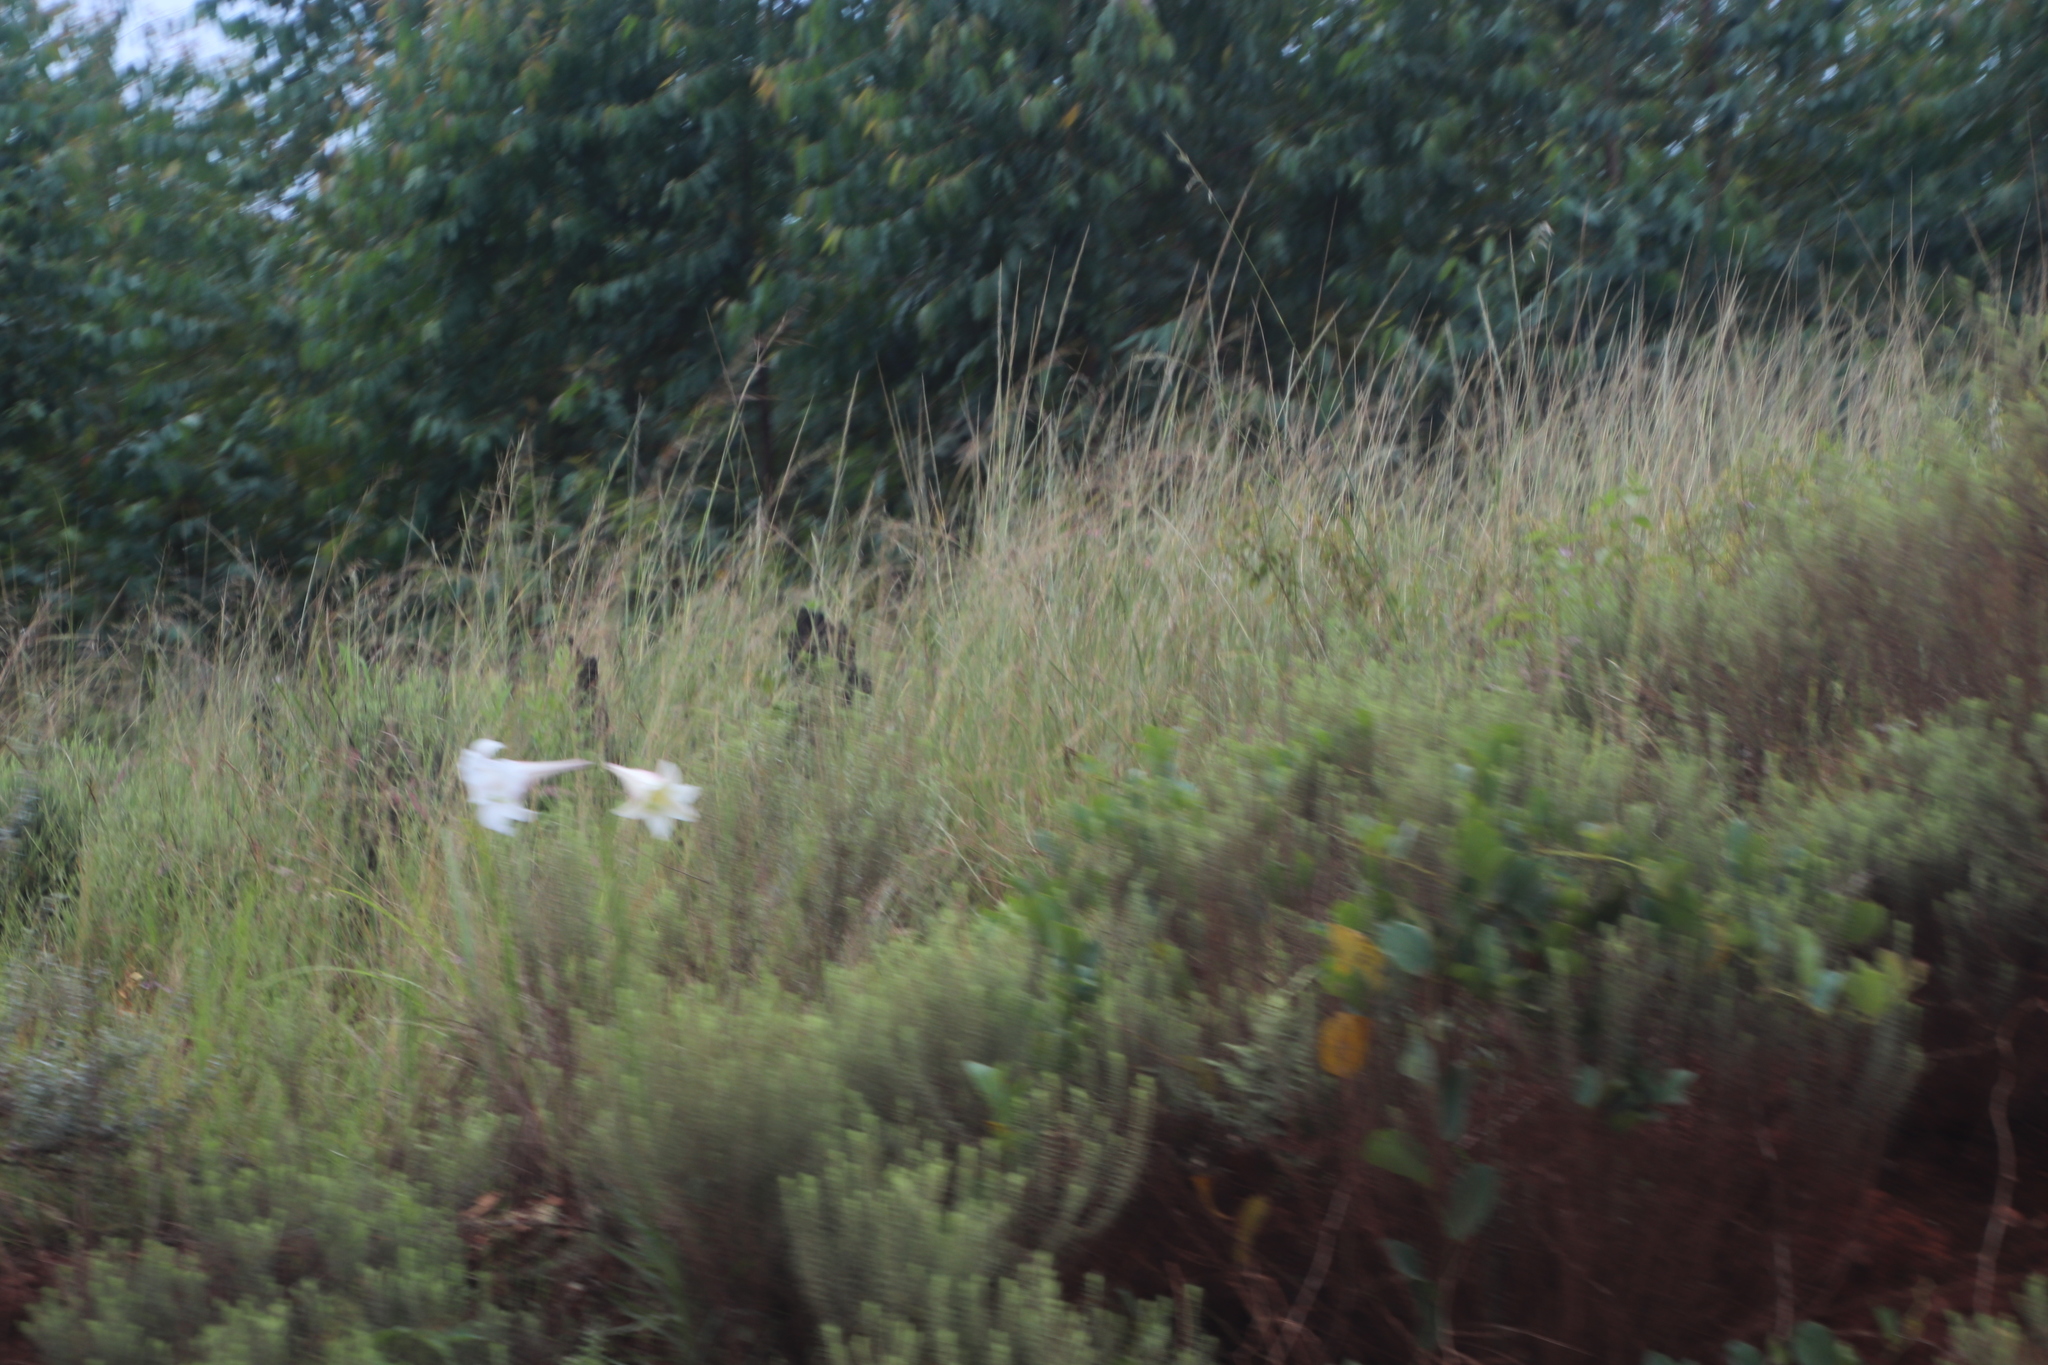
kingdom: Plantae
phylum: Tracheophyta
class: Liliopsida
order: Liliales
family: Liliaceae
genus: Lilium
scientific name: Lilium formosanum
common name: Formosa lily
